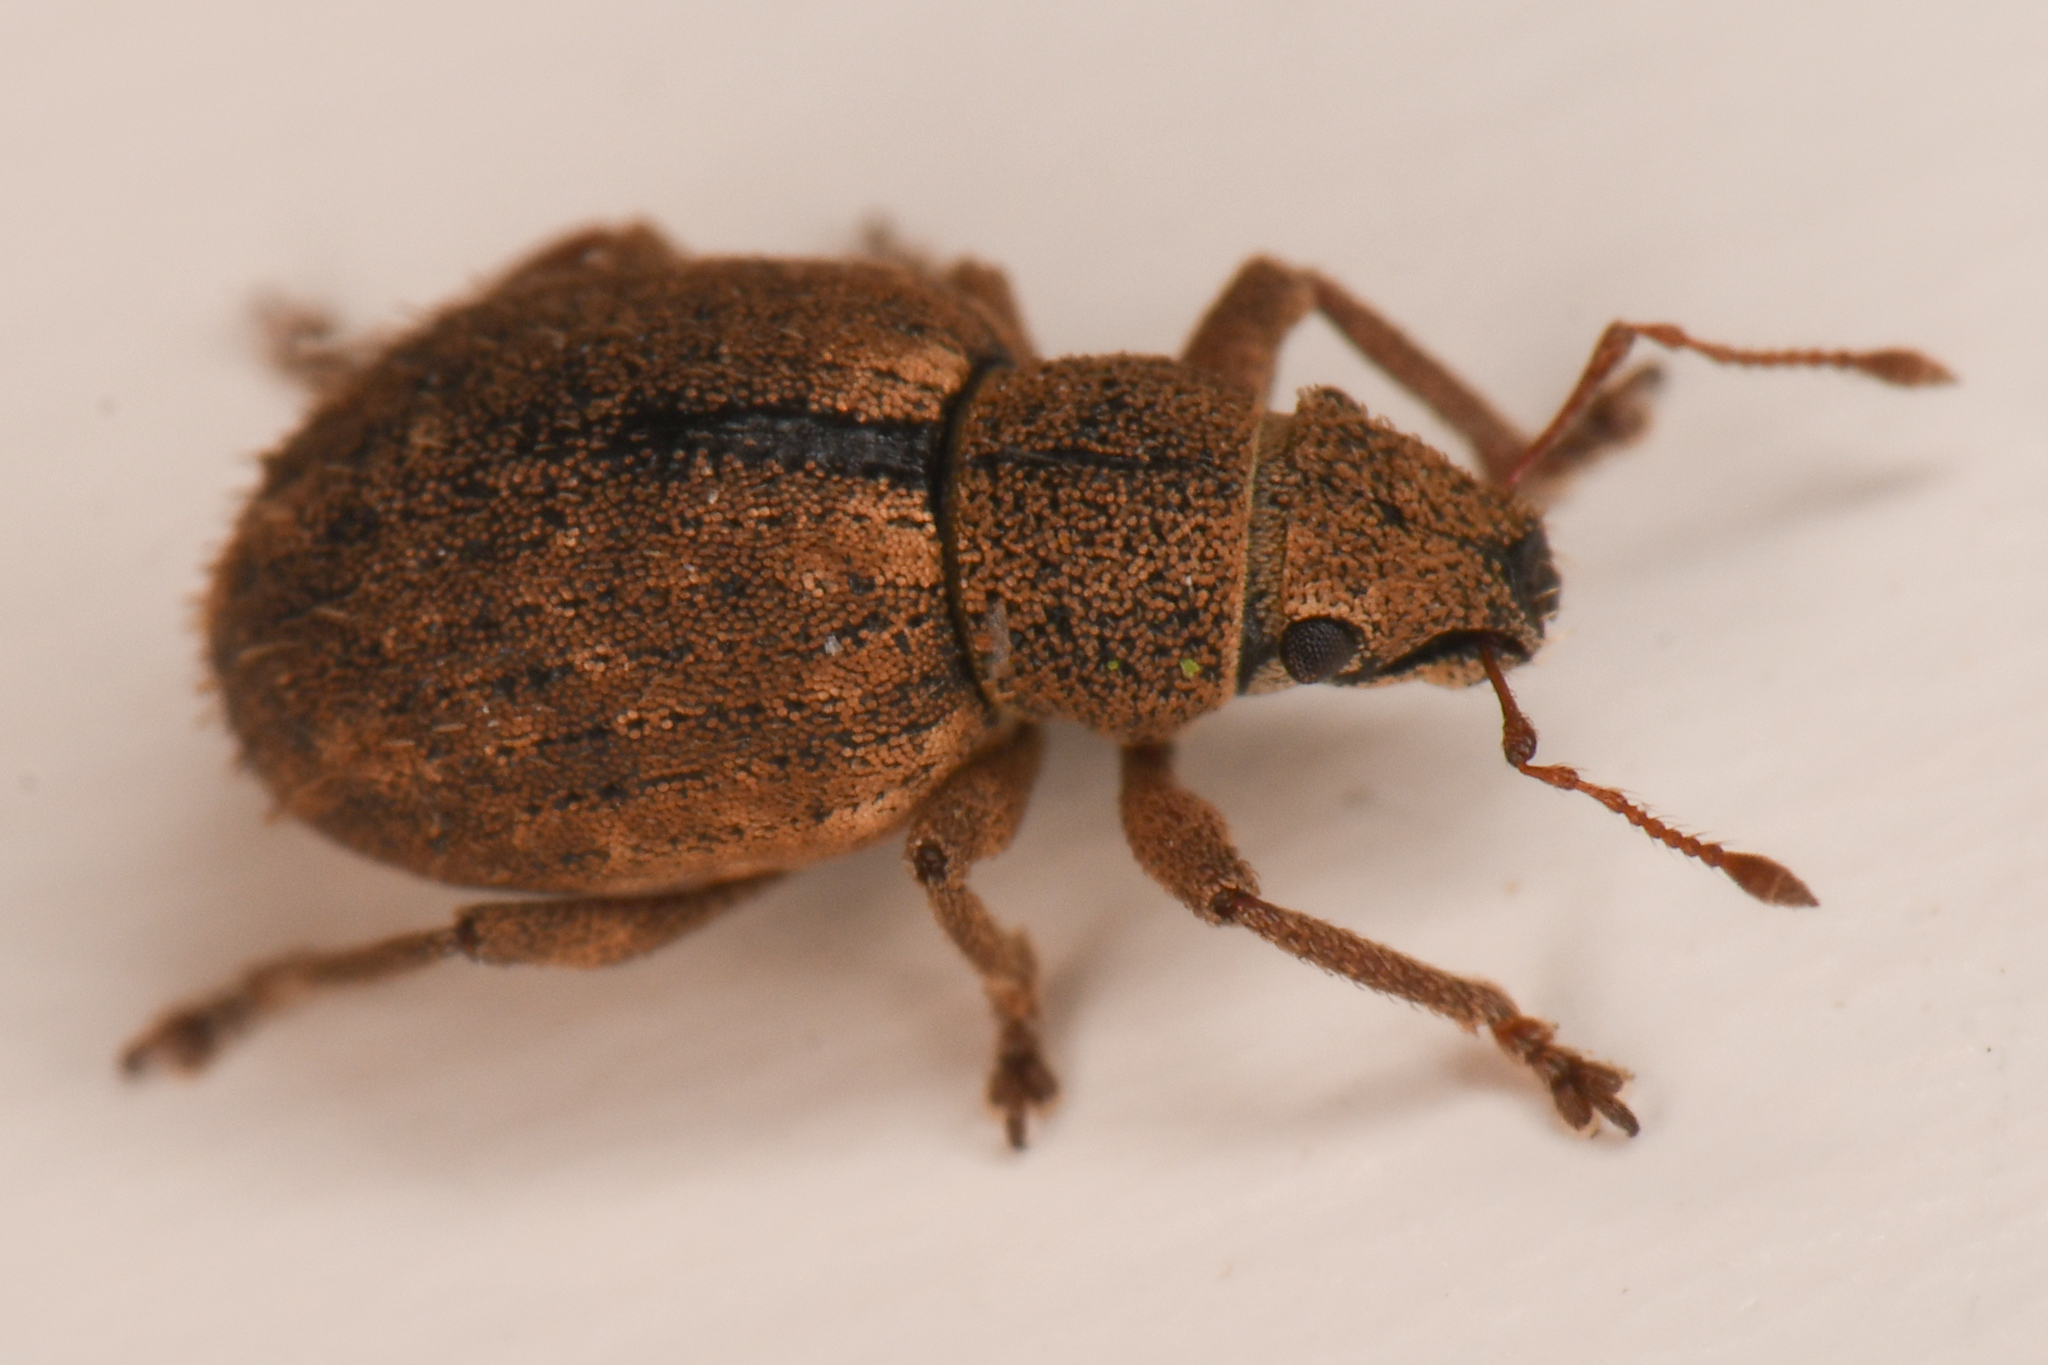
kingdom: Animalia
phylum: Arthropoda
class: Insecta
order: Coleoptera
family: Curculionidae
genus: Strophosoma
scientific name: Strophosoma melanogrammum
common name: Weevil
